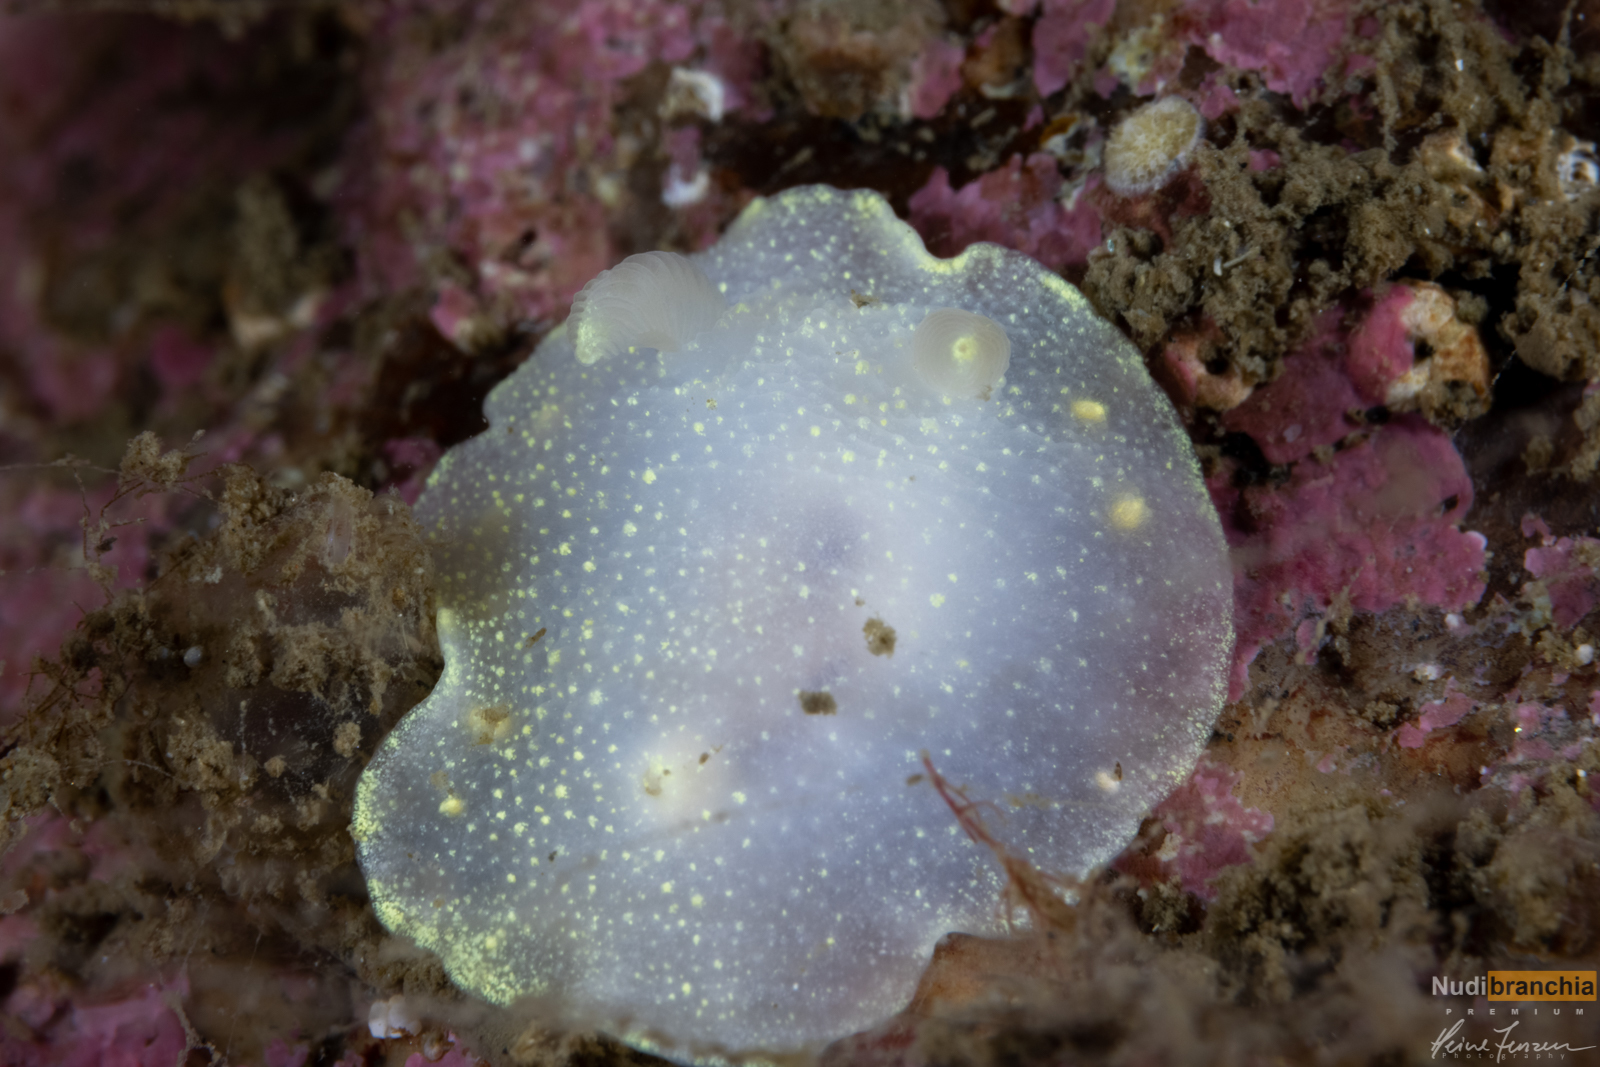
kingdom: Animalia
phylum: Mollusca
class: Gastropoda
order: Nudibranchia
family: Cadlinidae
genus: Cadlina
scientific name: Cadlina laevis
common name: White atlantic cadlina
